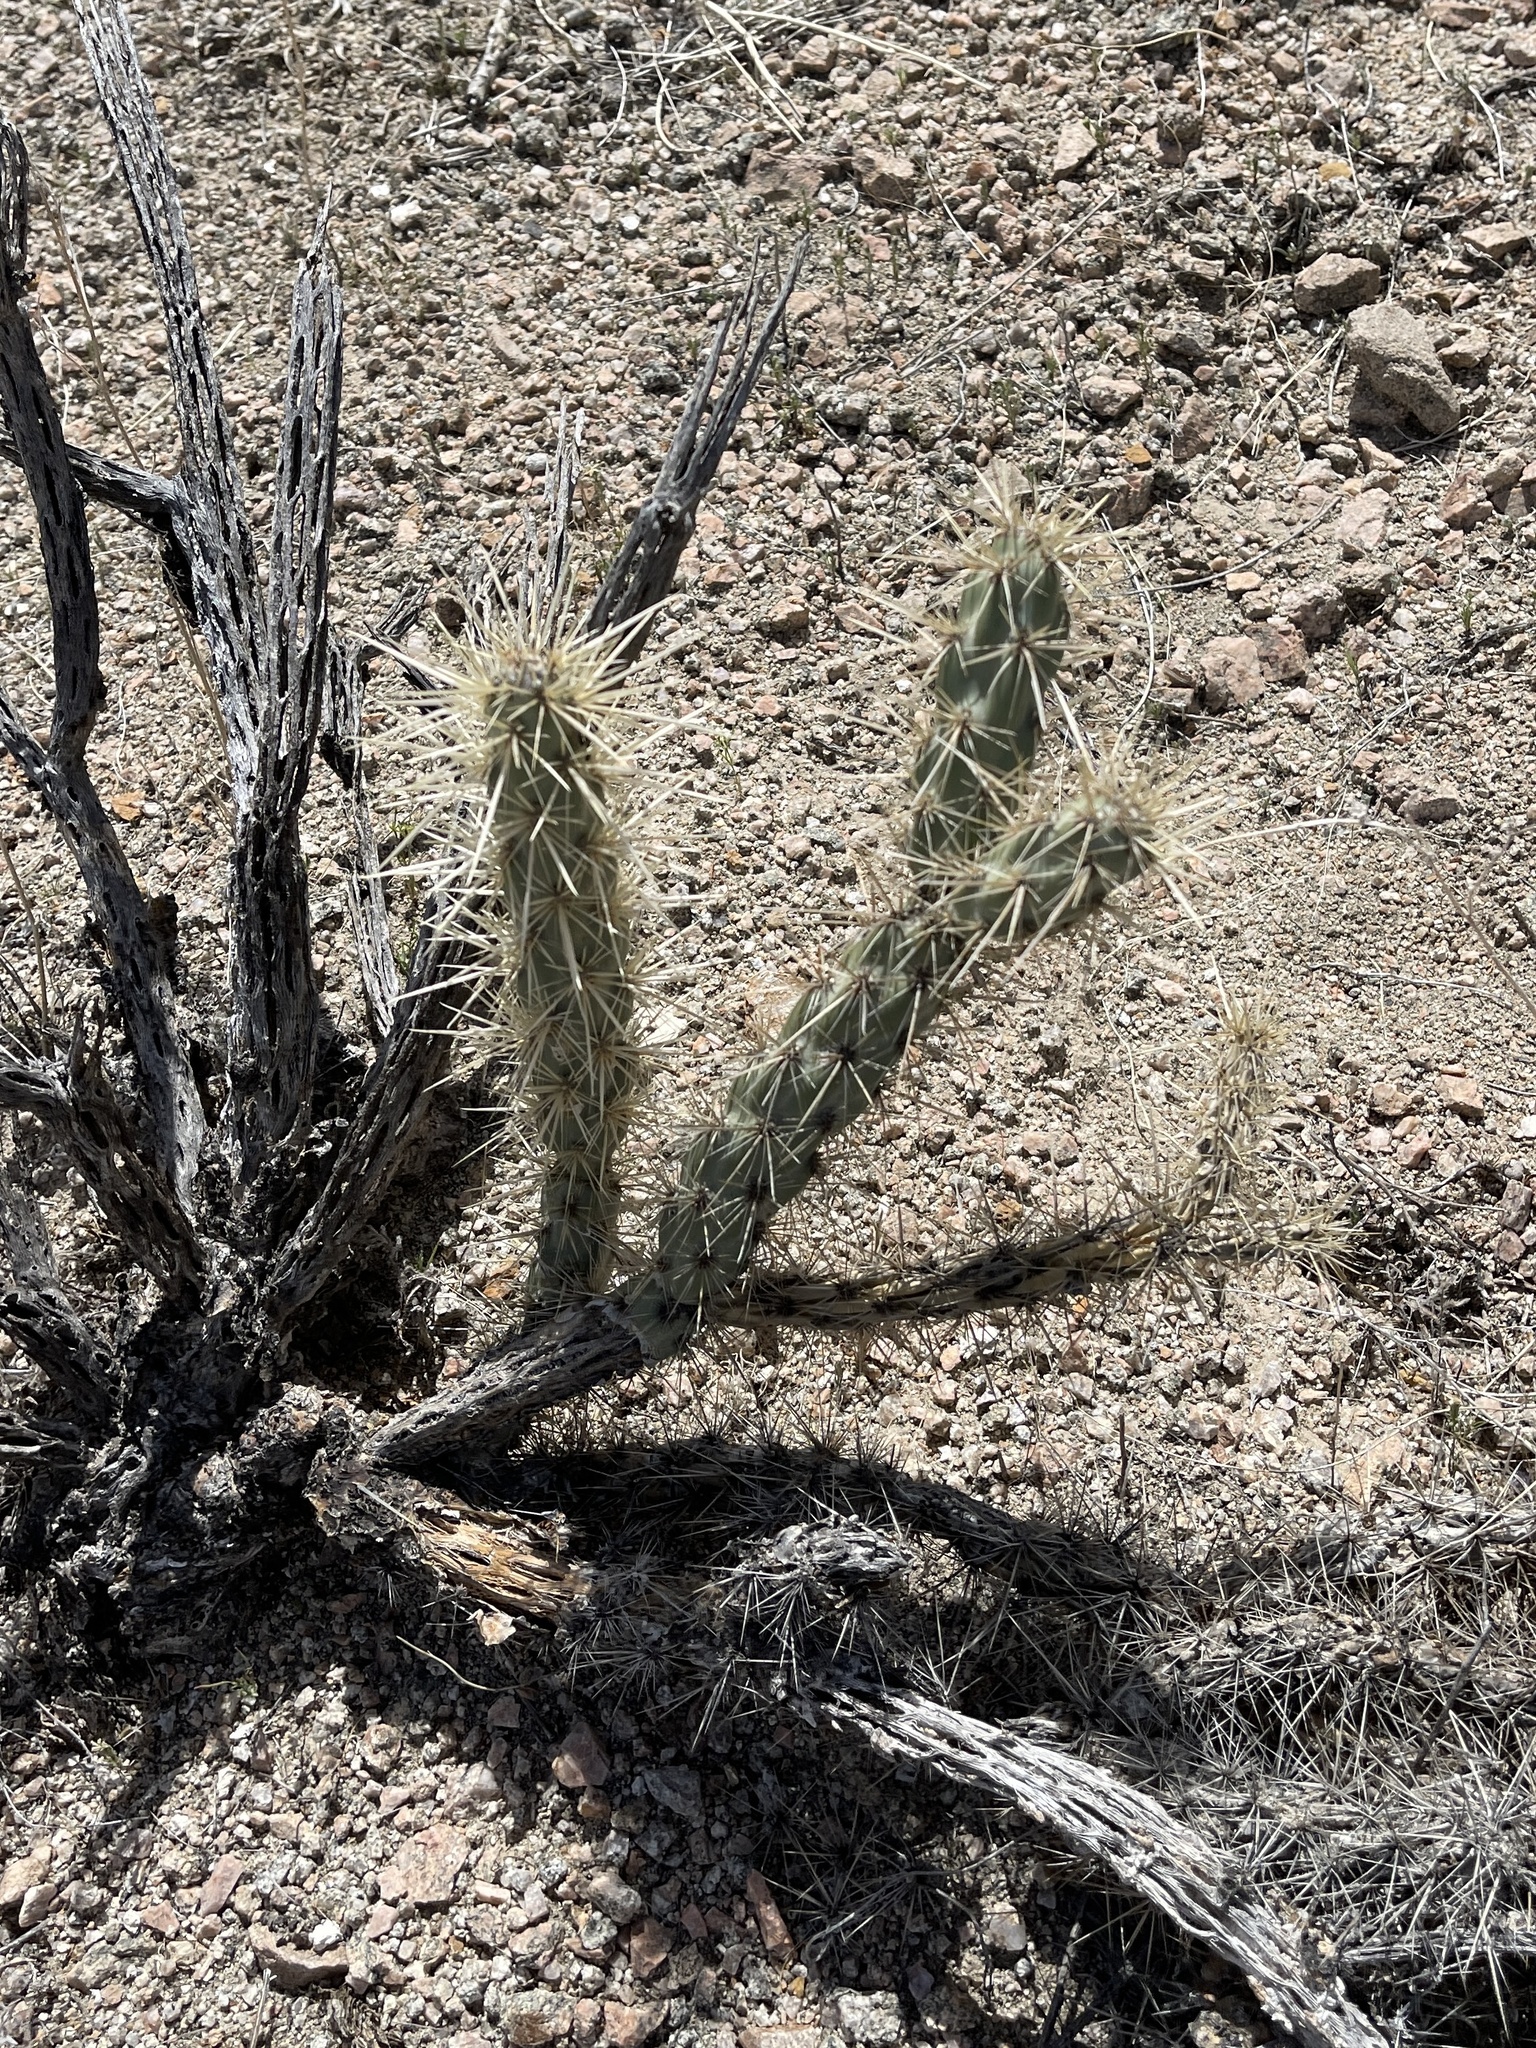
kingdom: Plantae
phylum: Tracheophyta
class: Magnoliopsida
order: Caryophyllales
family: Cactaceae
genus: Cylindropuntia
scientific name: Cylindropuntia acanthocarpa
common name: Buckhorn cholla
